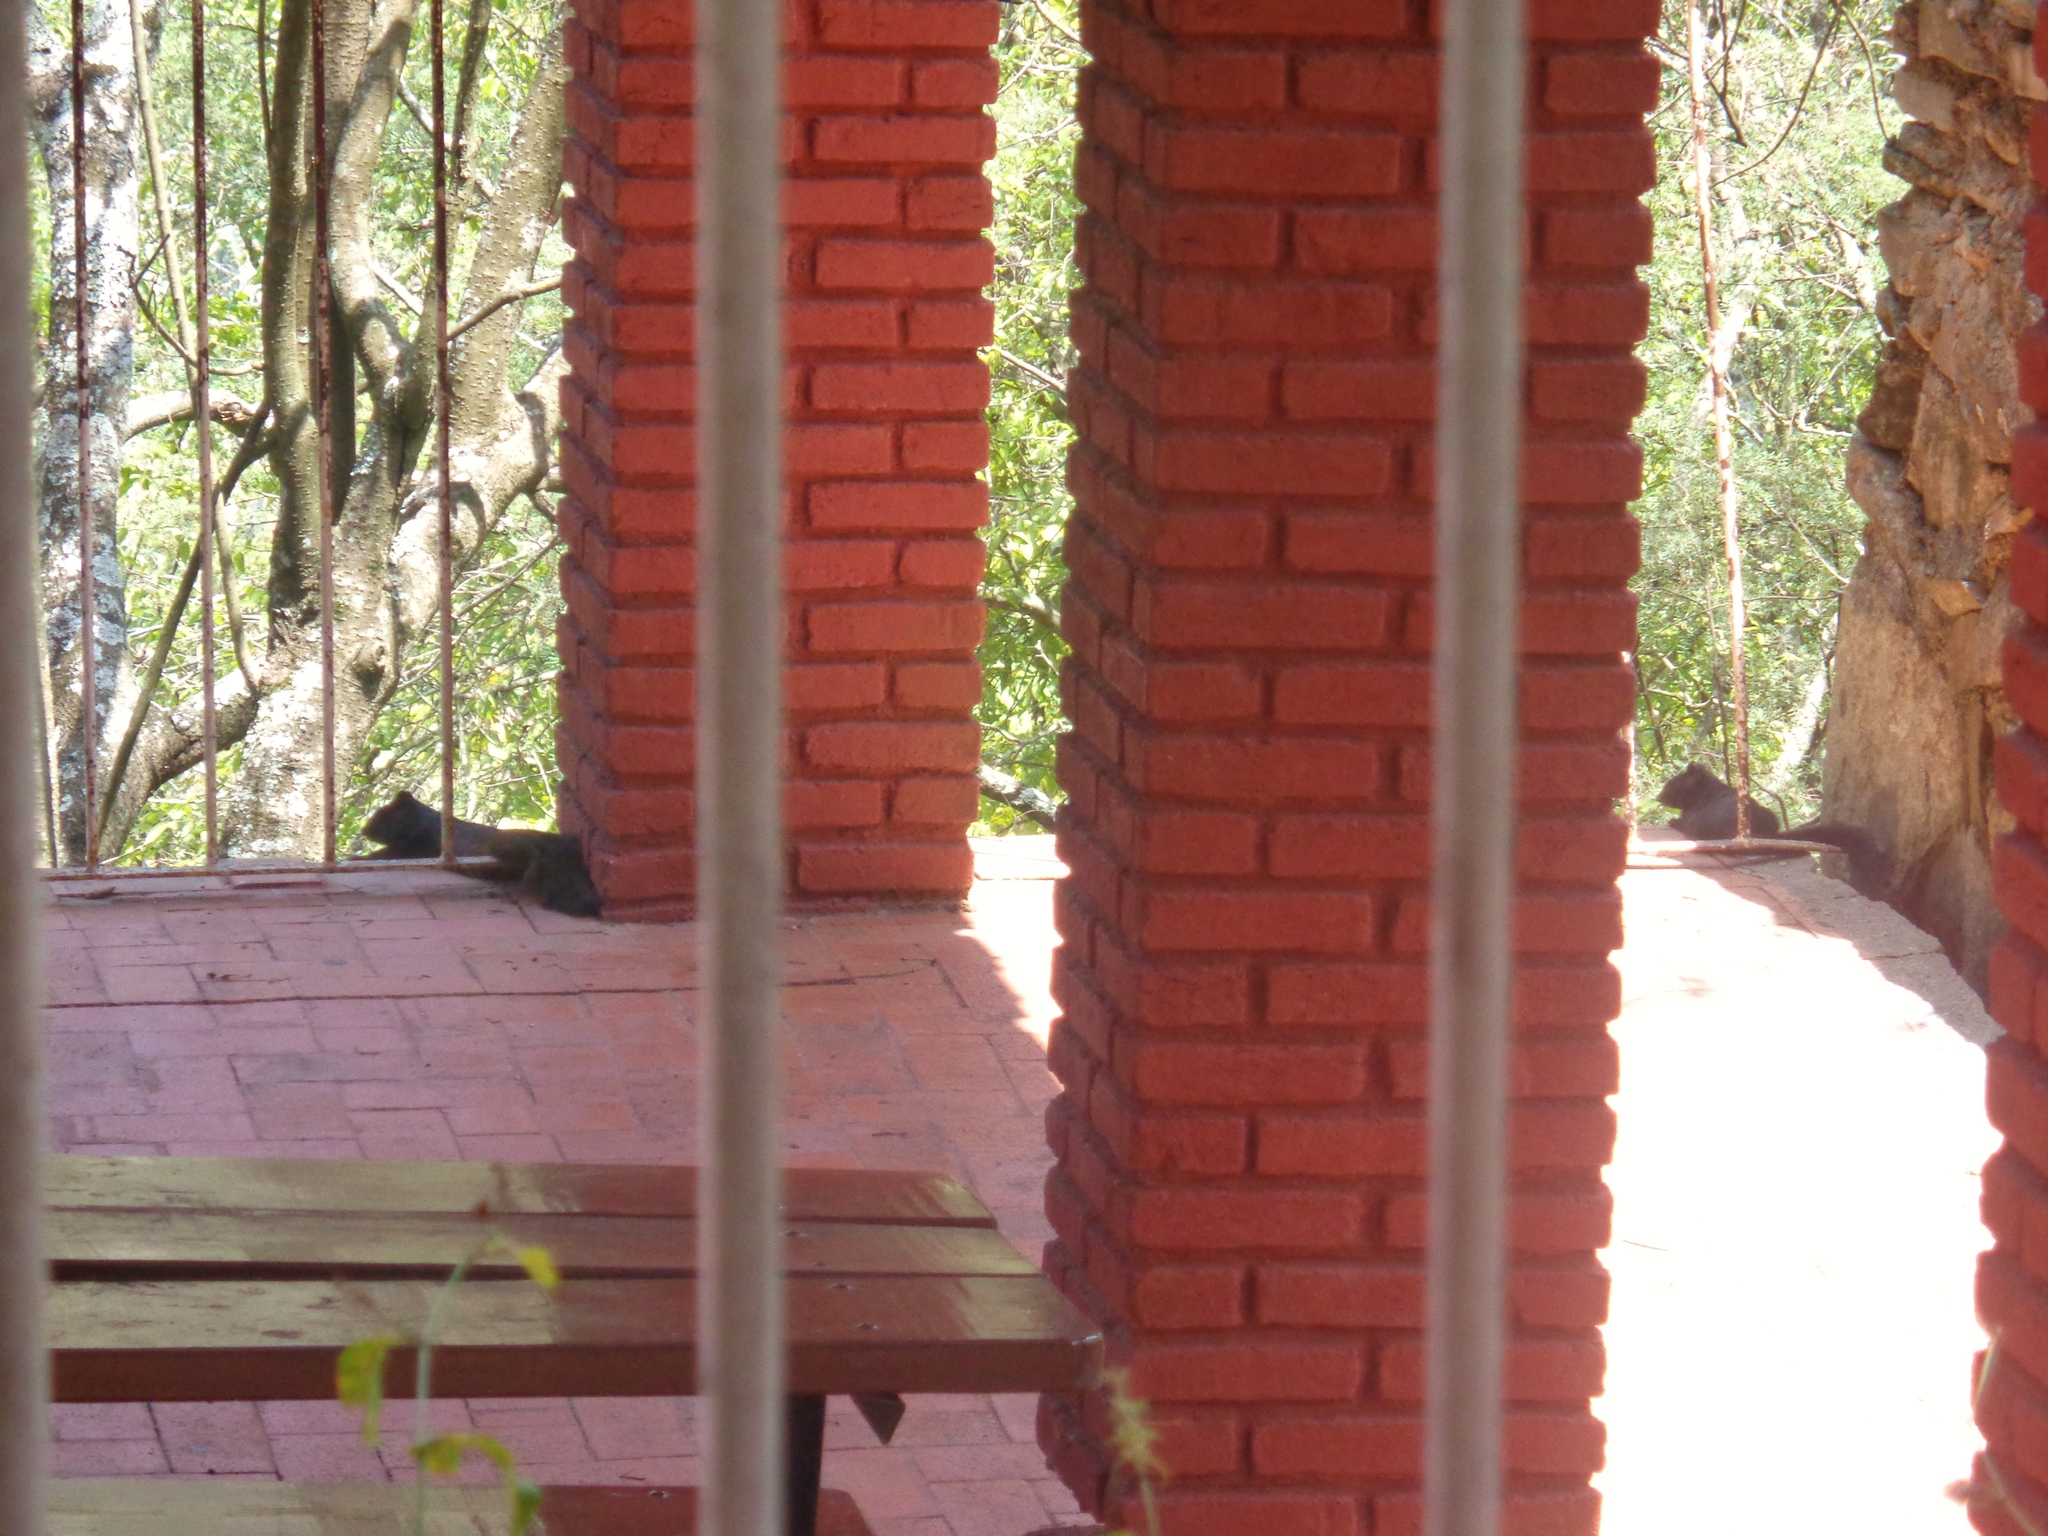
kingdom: Animalia
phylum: Chordata
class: Mammalia
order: Rodentia
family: Sciuridae
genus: Otospermophilus
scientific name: Otospermophilus variegatus
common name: Rock squirrel
